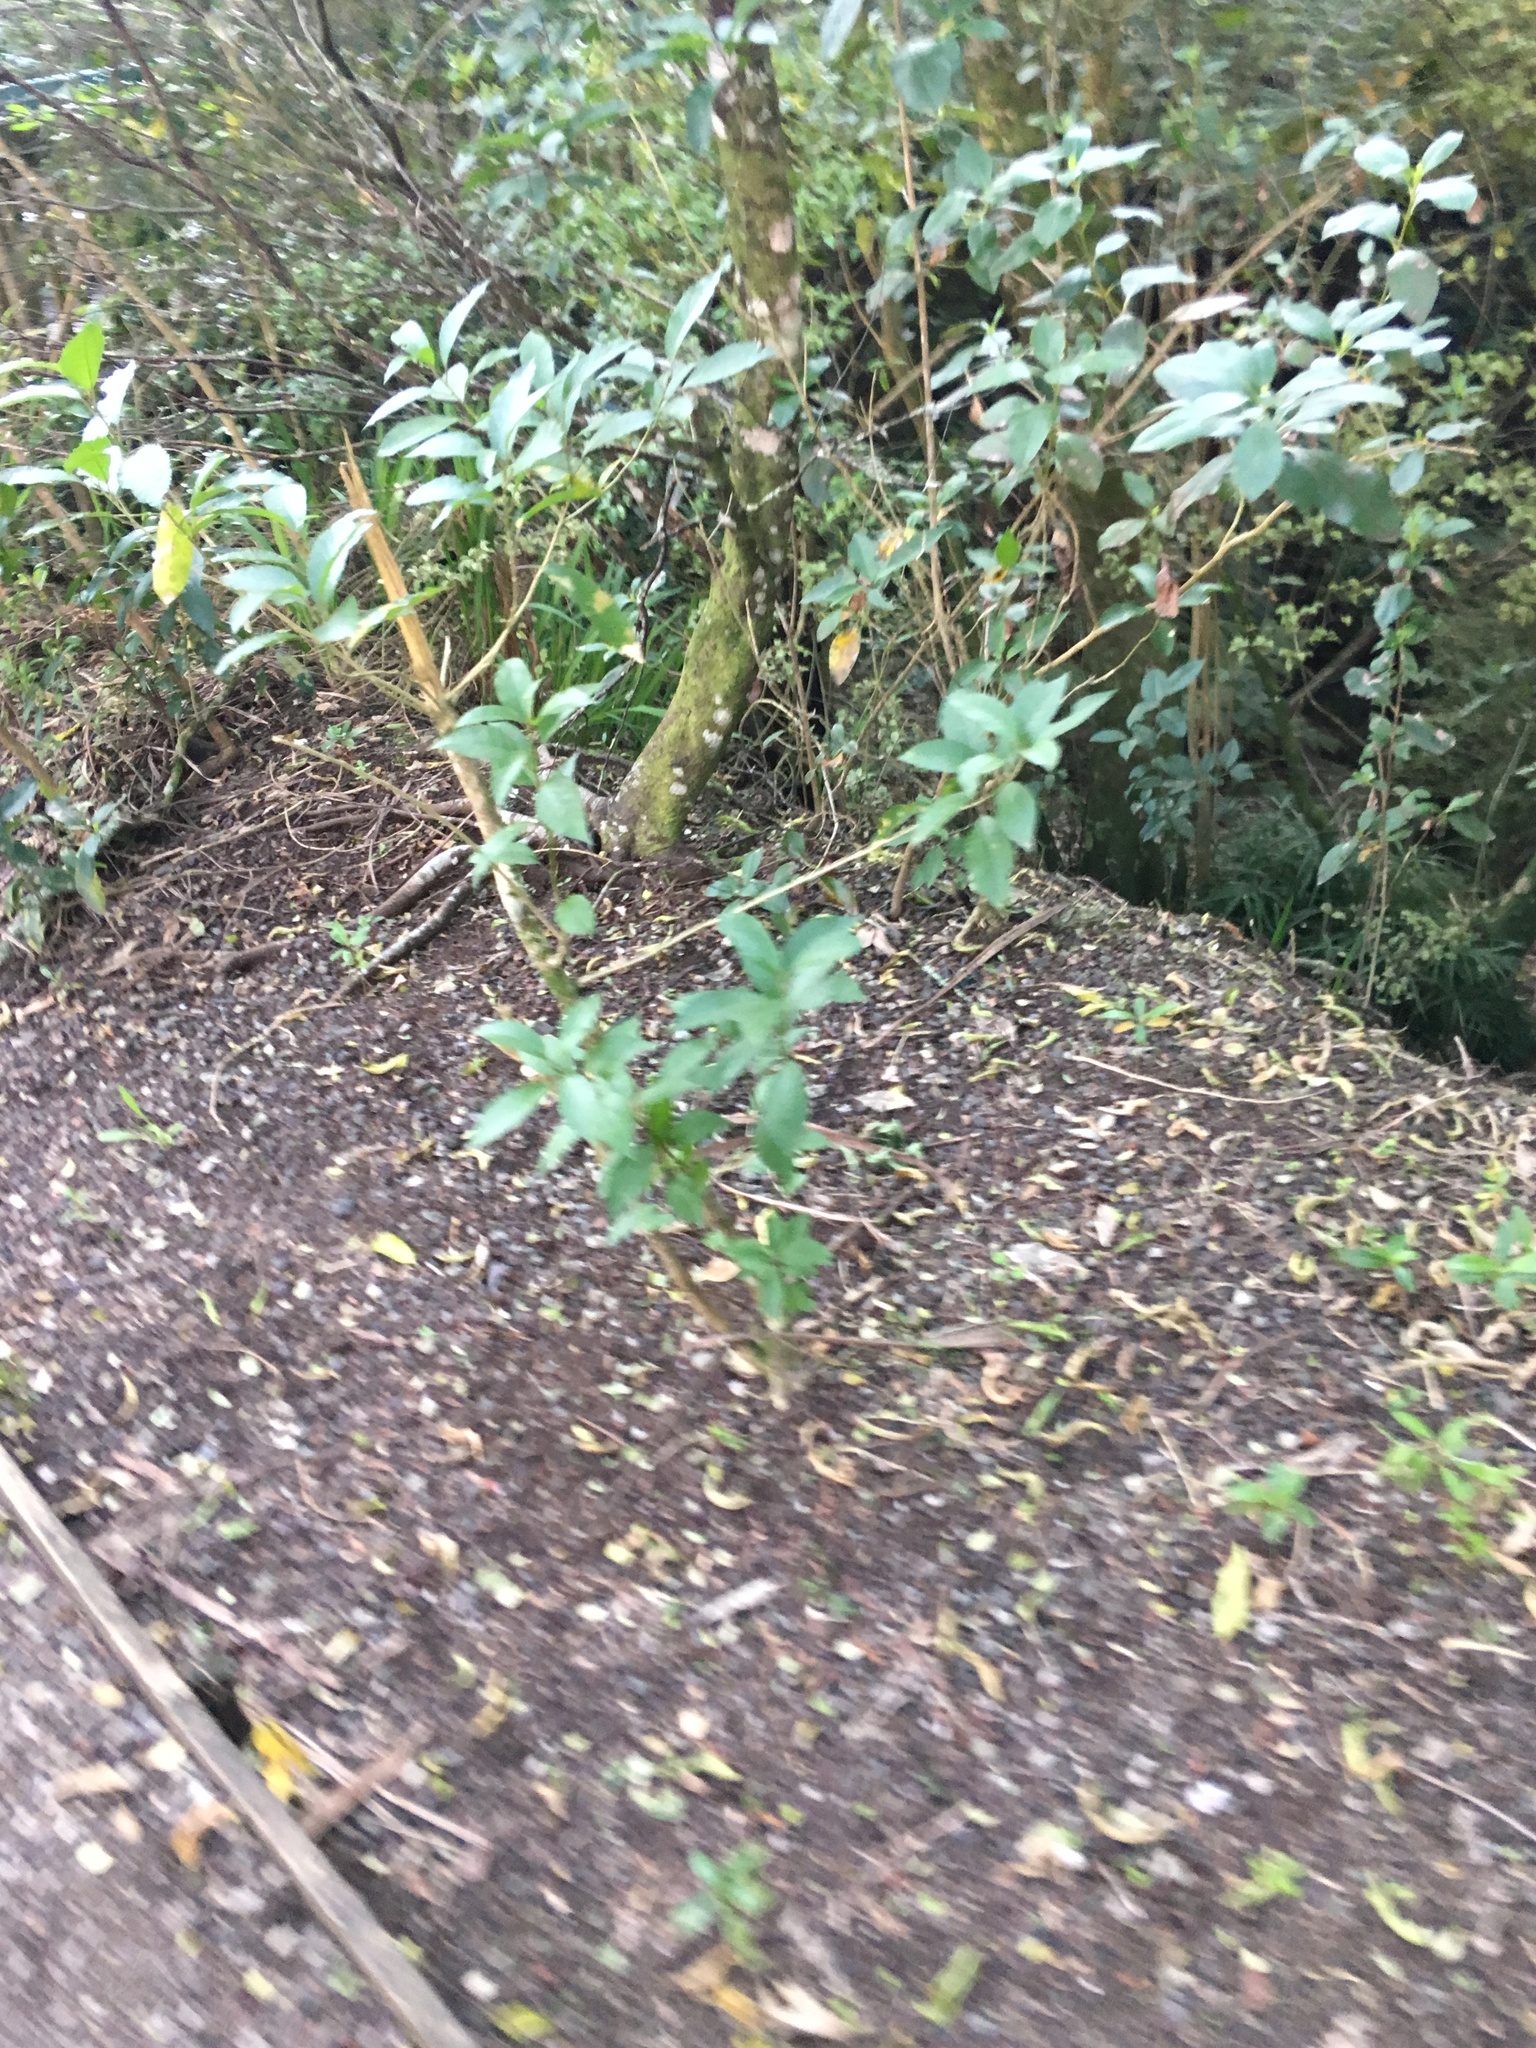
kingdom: Plantae
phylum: Tracheophyta
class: Magnoliopsida
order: Malpighiales
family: Violaceae
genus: Melicytus
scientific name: Melicytus ramiflorus
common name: Mahoe
